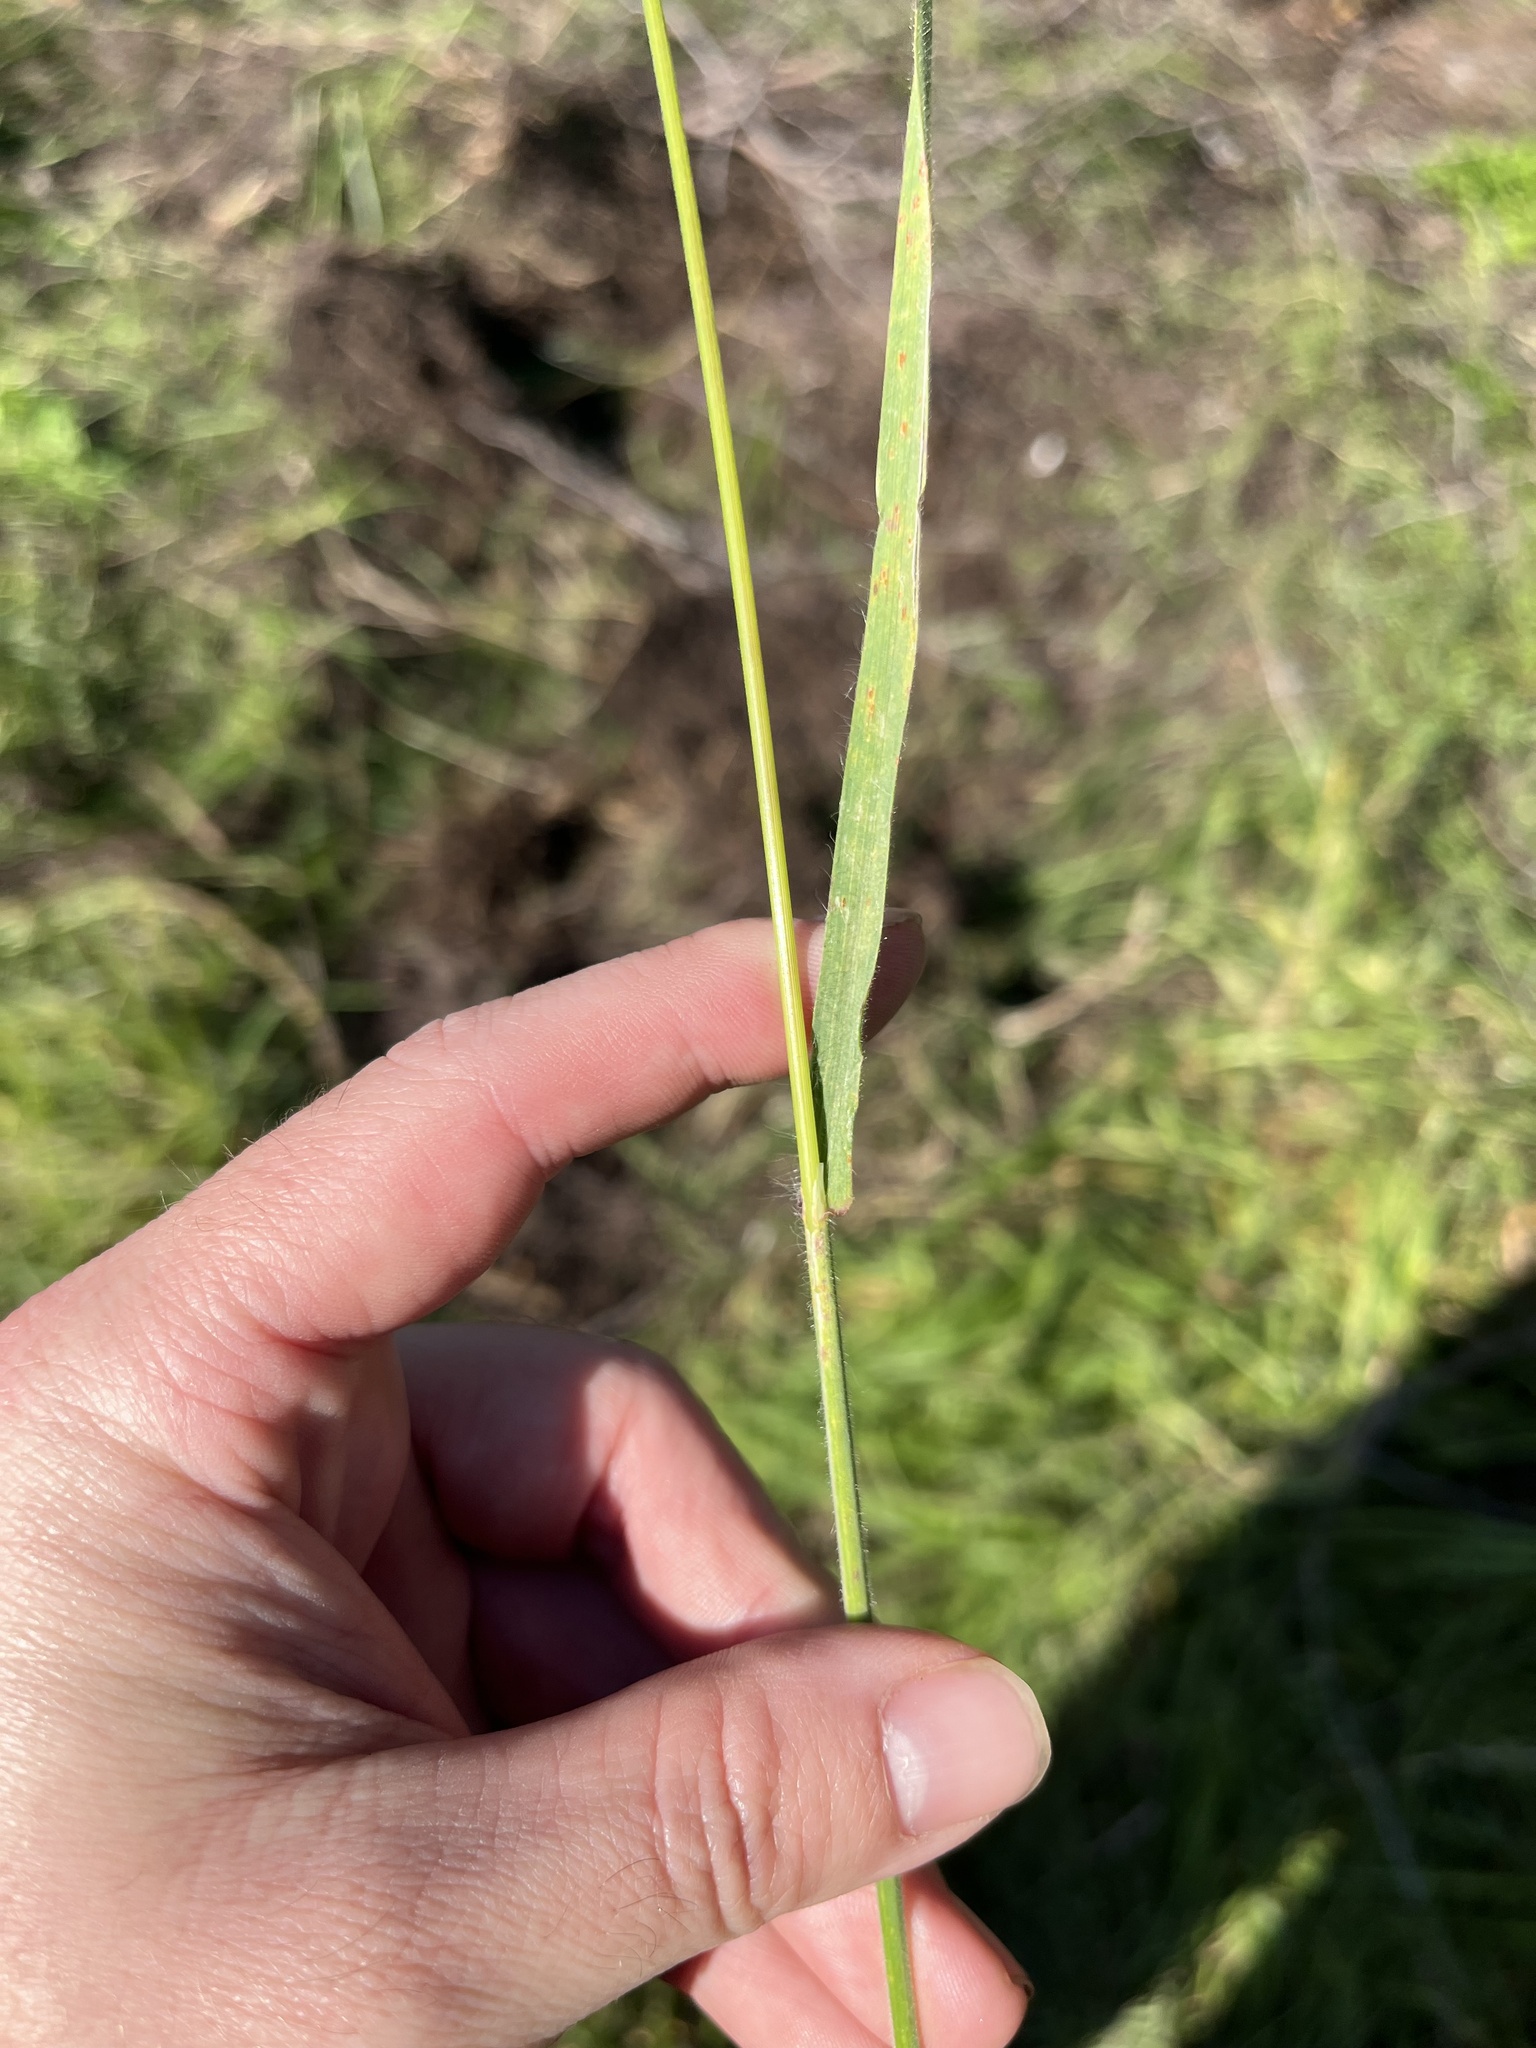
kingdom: Plantae
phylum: Tracheophyta
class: Liliopsida
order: Poales
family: Poaceae
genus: Bromus
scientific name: Bromus diandrus
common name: Ripgut brome
